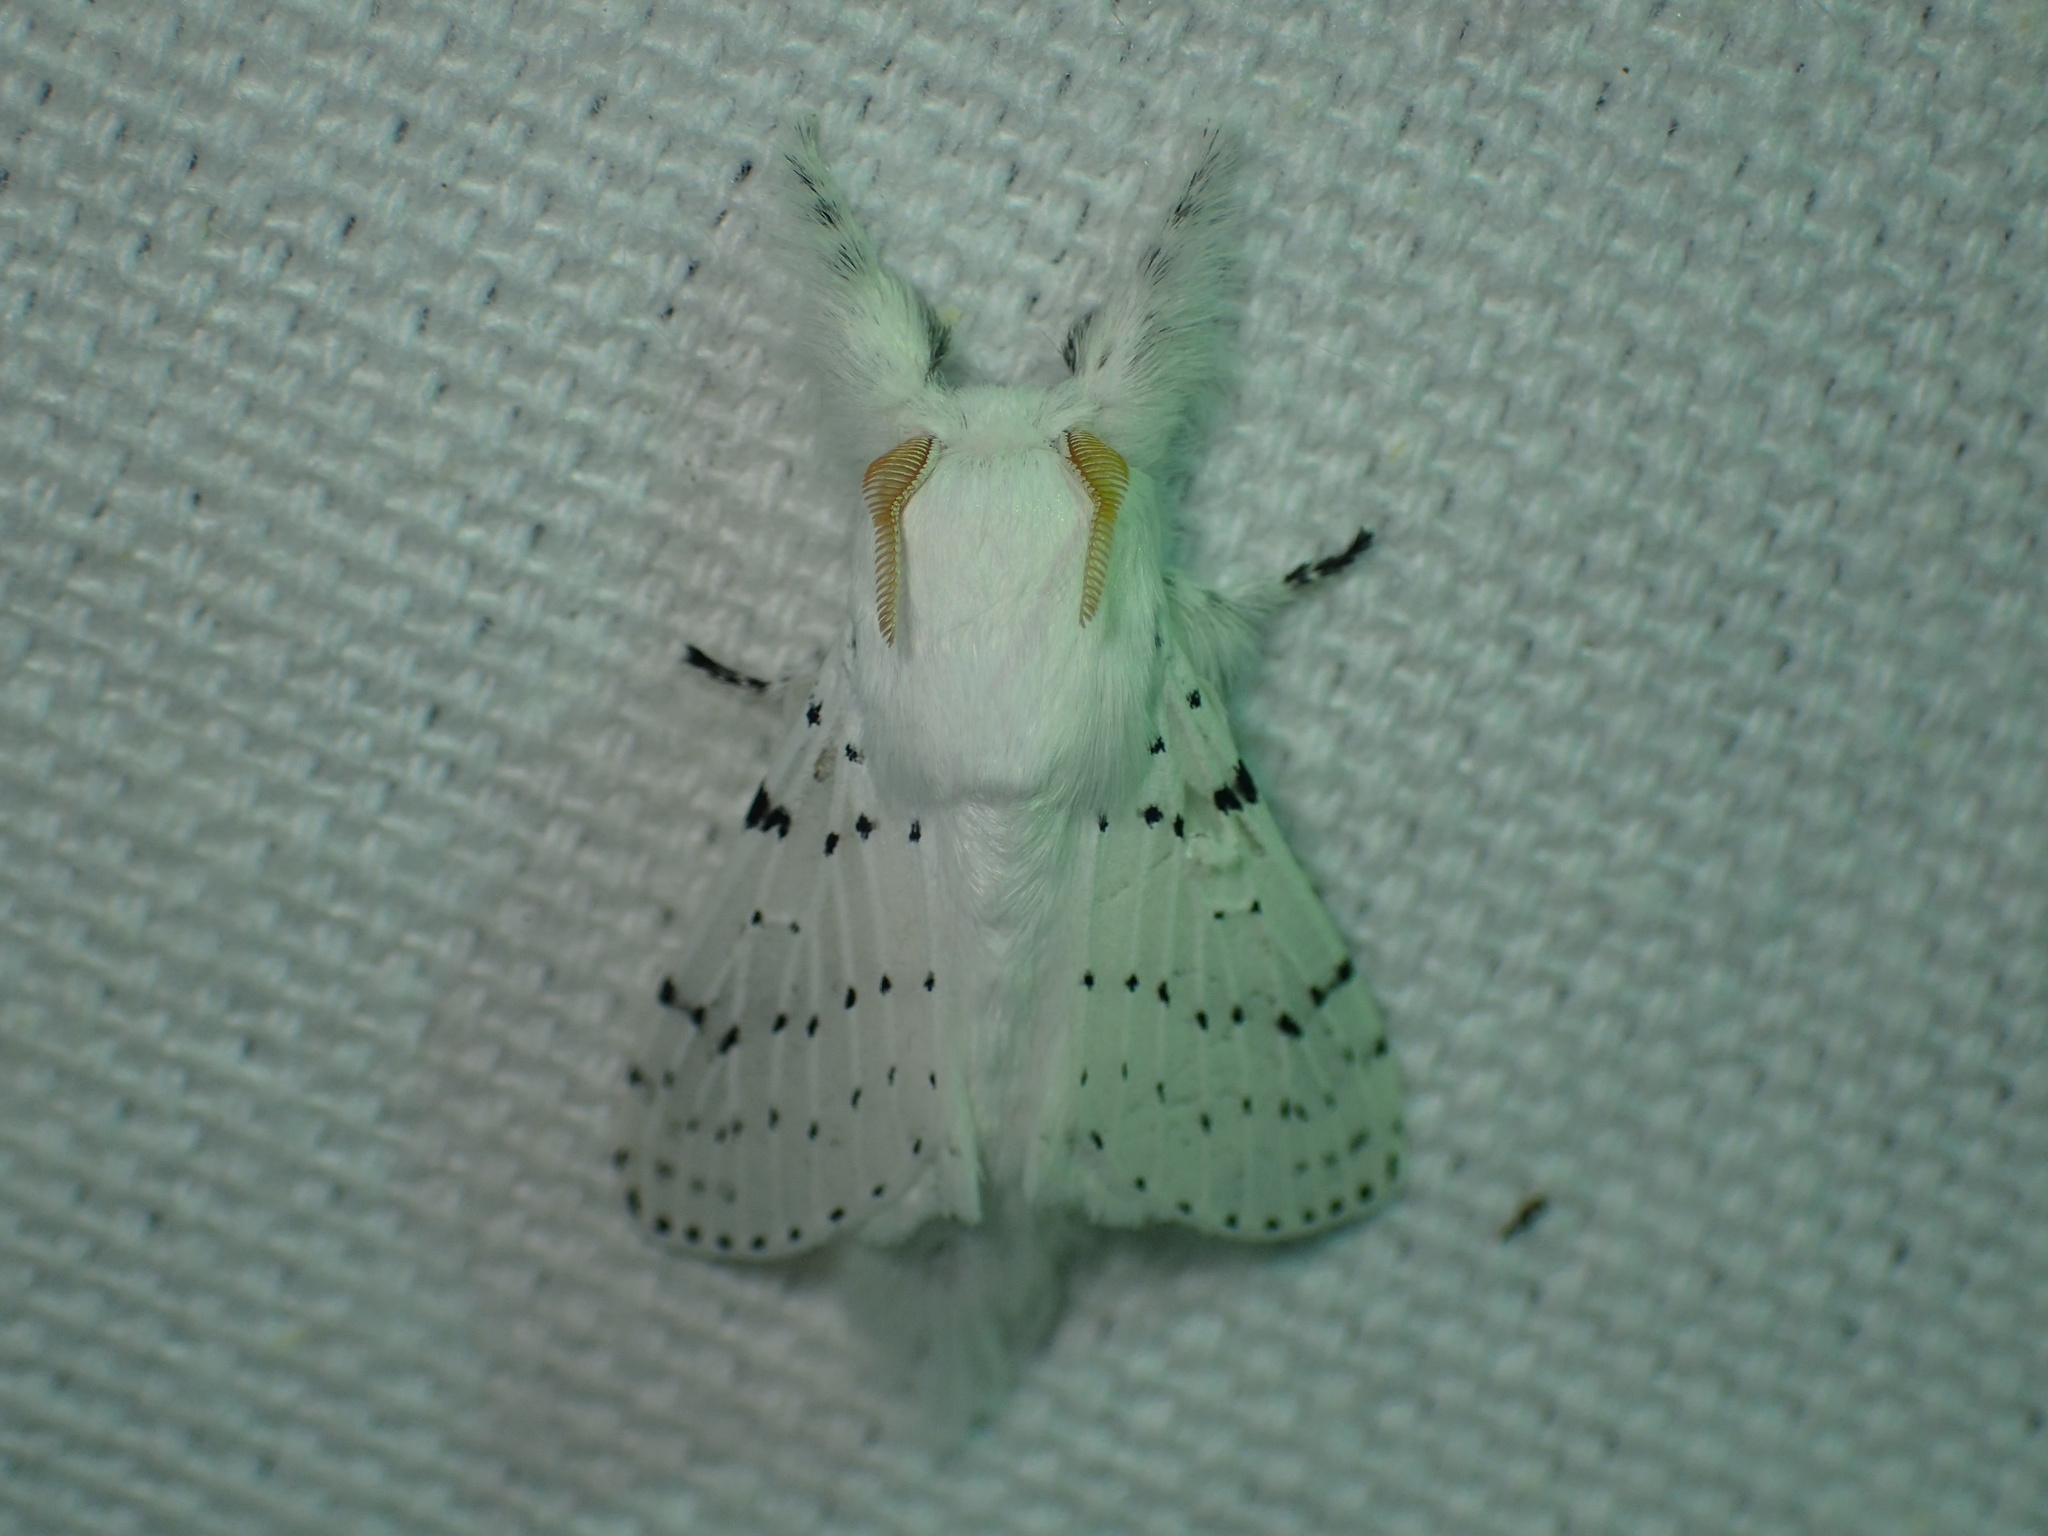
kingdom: Animalia
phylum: Arthropoda
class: Insecta
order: Lepidoptera
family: Lasiocampidae
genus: Artace
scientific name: Artace cribrarius
